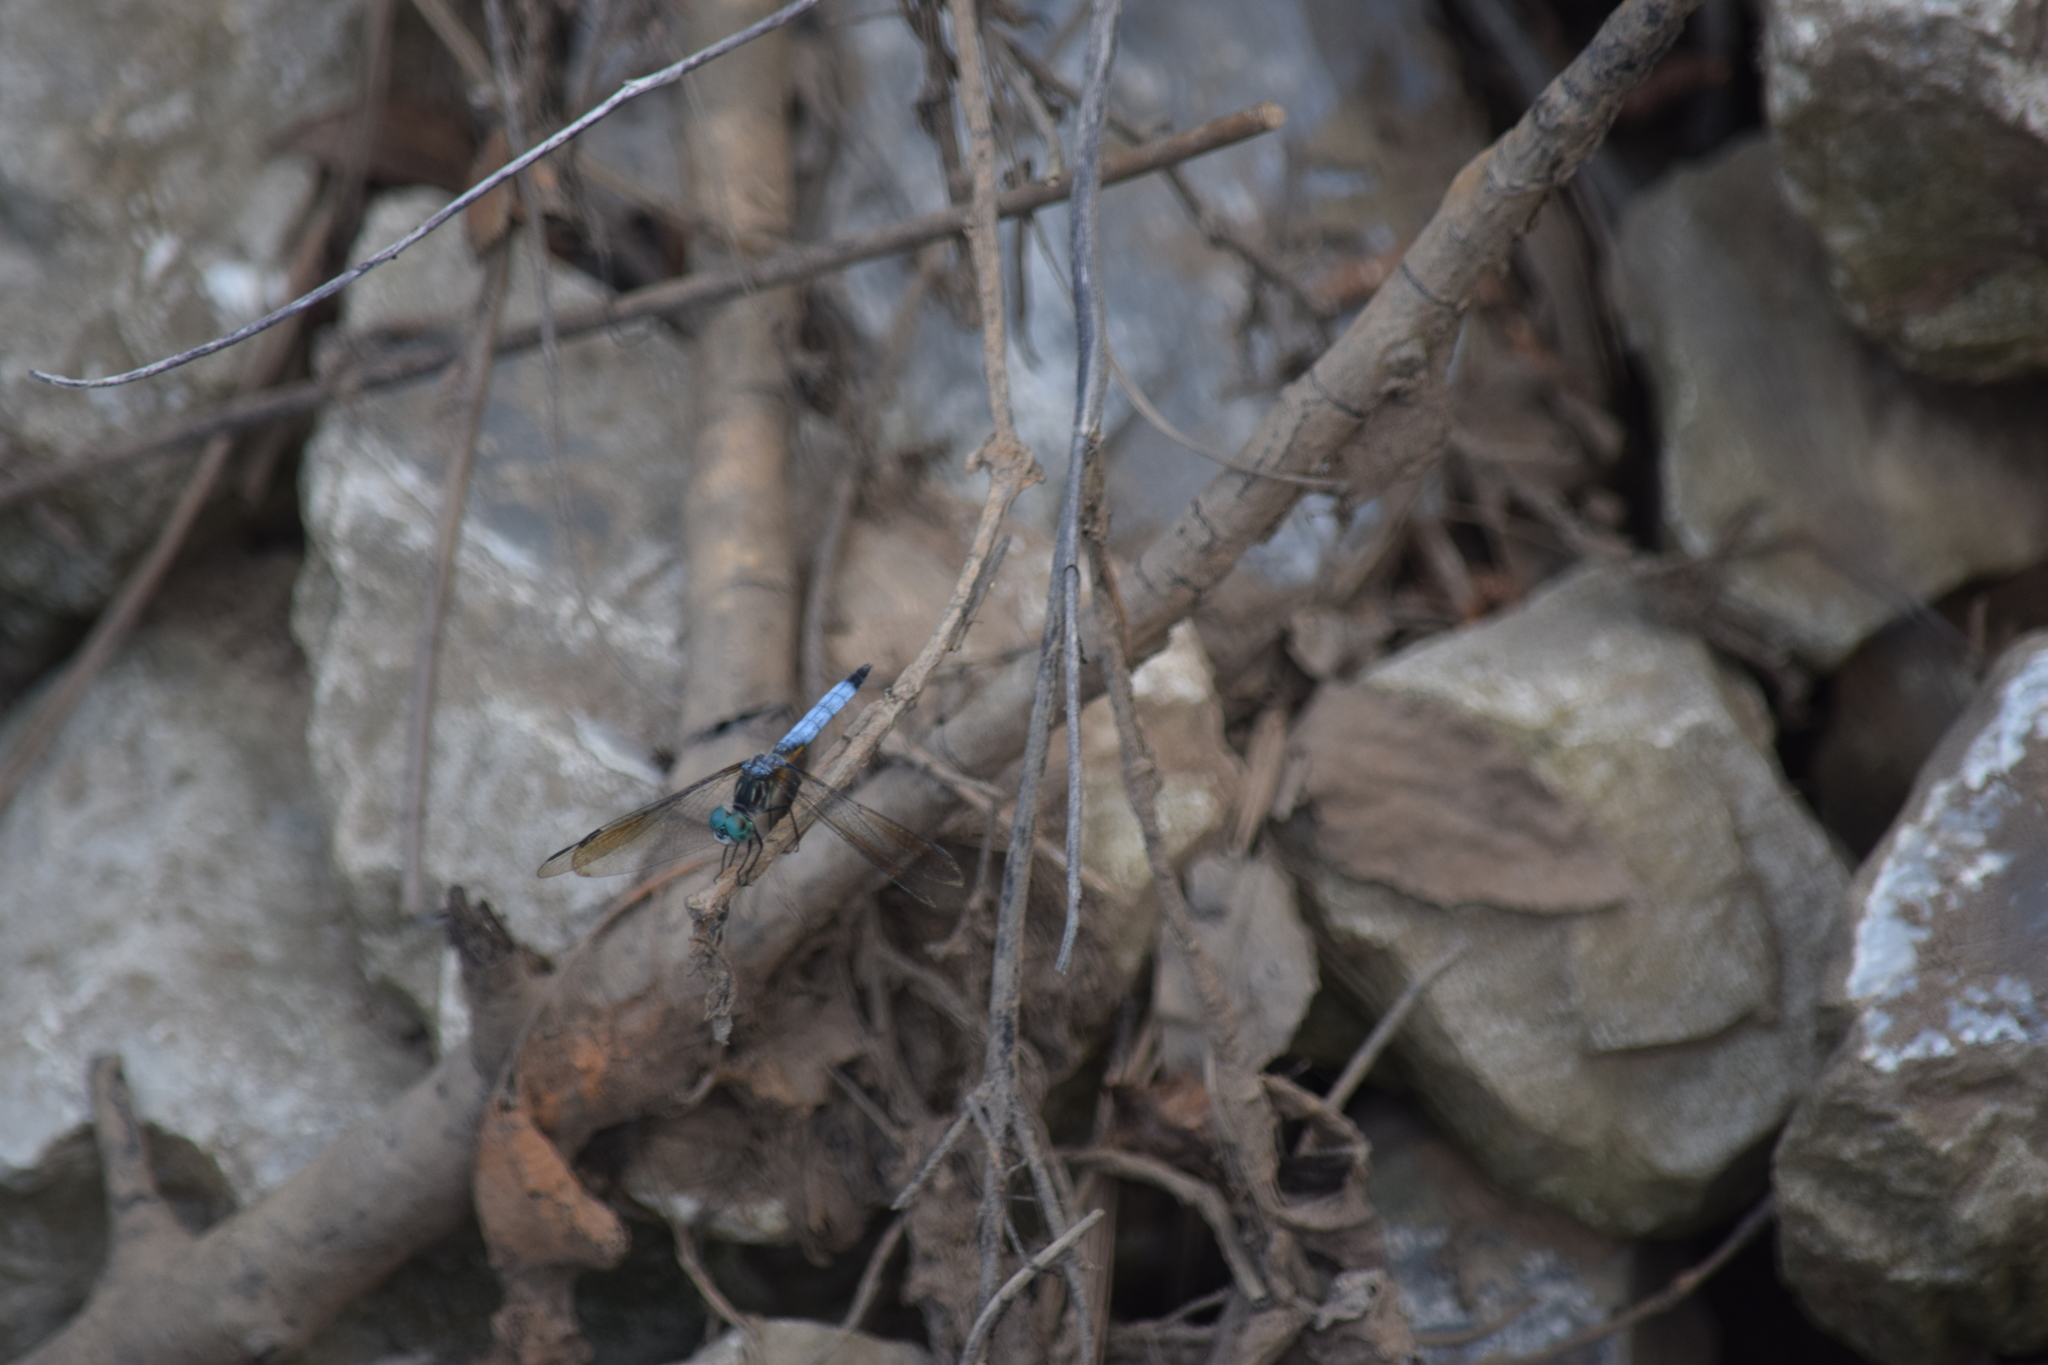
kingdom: Animalia
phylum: Arthropoda
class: Insecta
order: Odonata
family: Libellulidae
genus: Pachydiplax
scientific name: Pachydiplax longipennis
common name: Blue dasher
